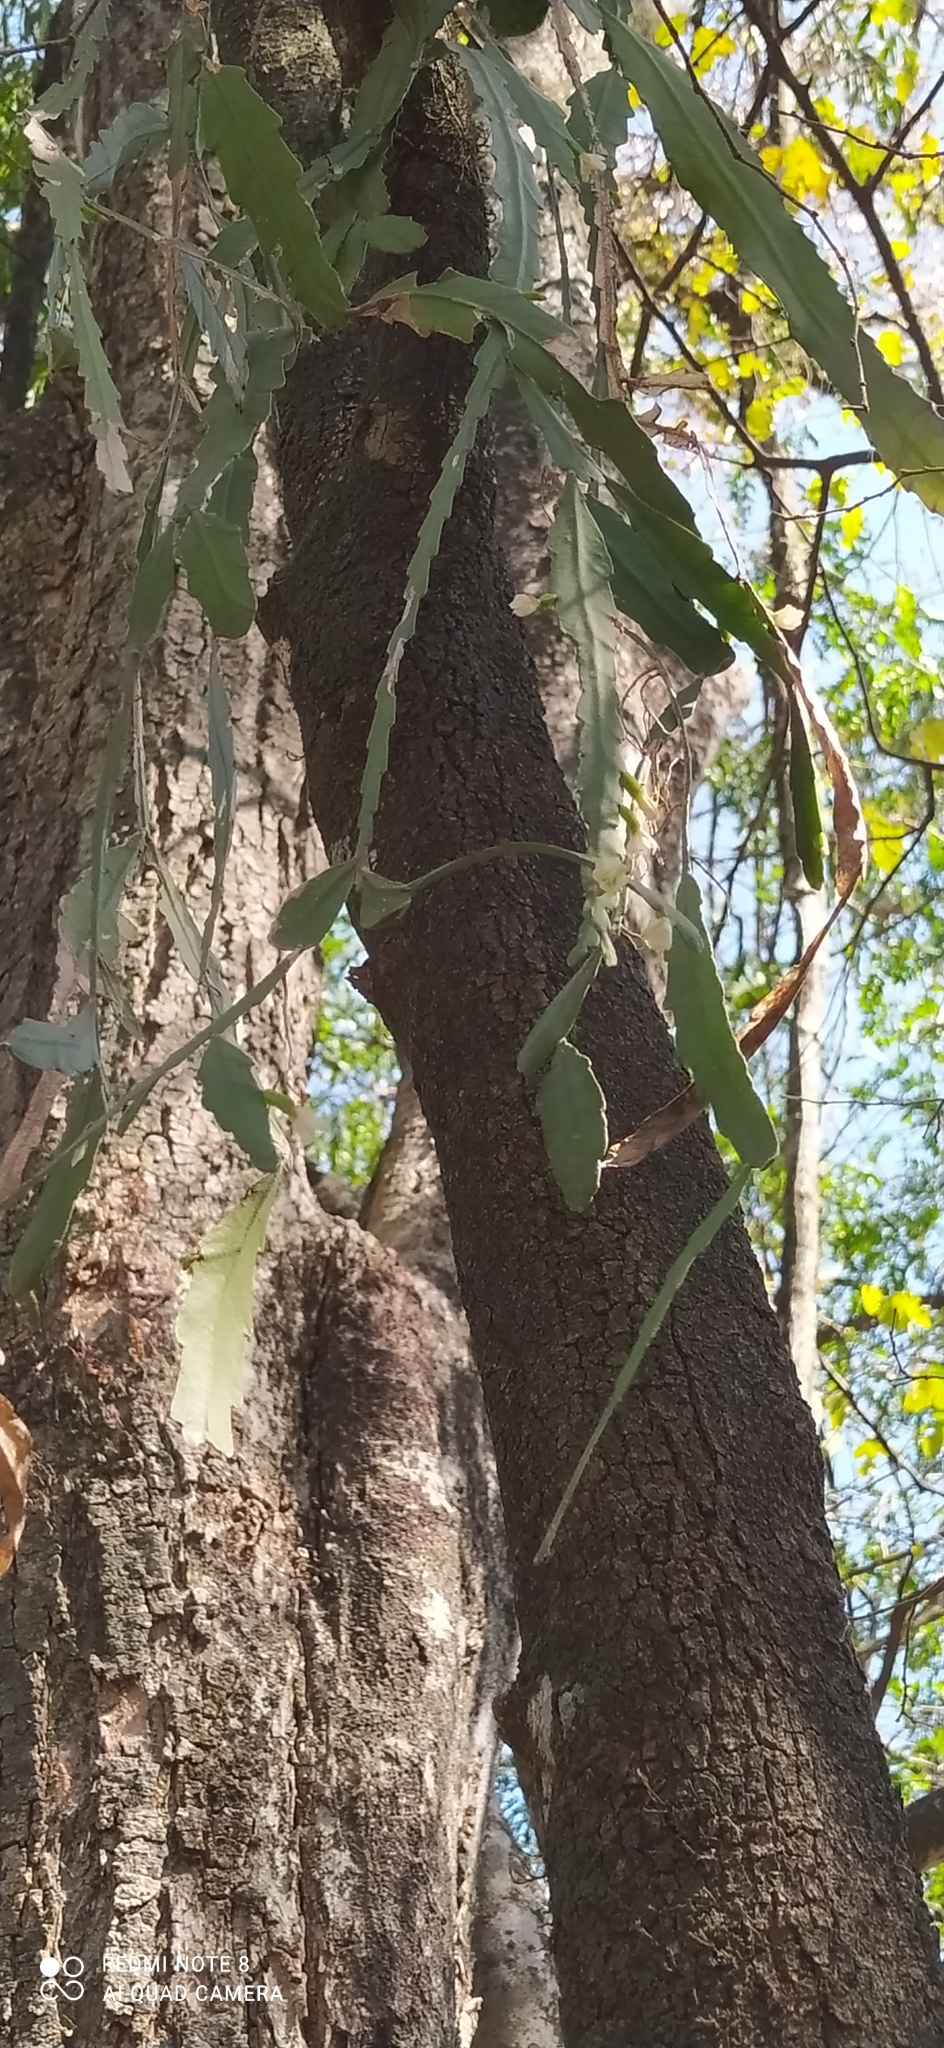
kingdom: Plantae
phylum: Tracheophyta
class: Magnoliopsida
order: Caryophyllales
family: Cactaceae
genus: Lepismium
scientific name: Lepismium lorentzianum
